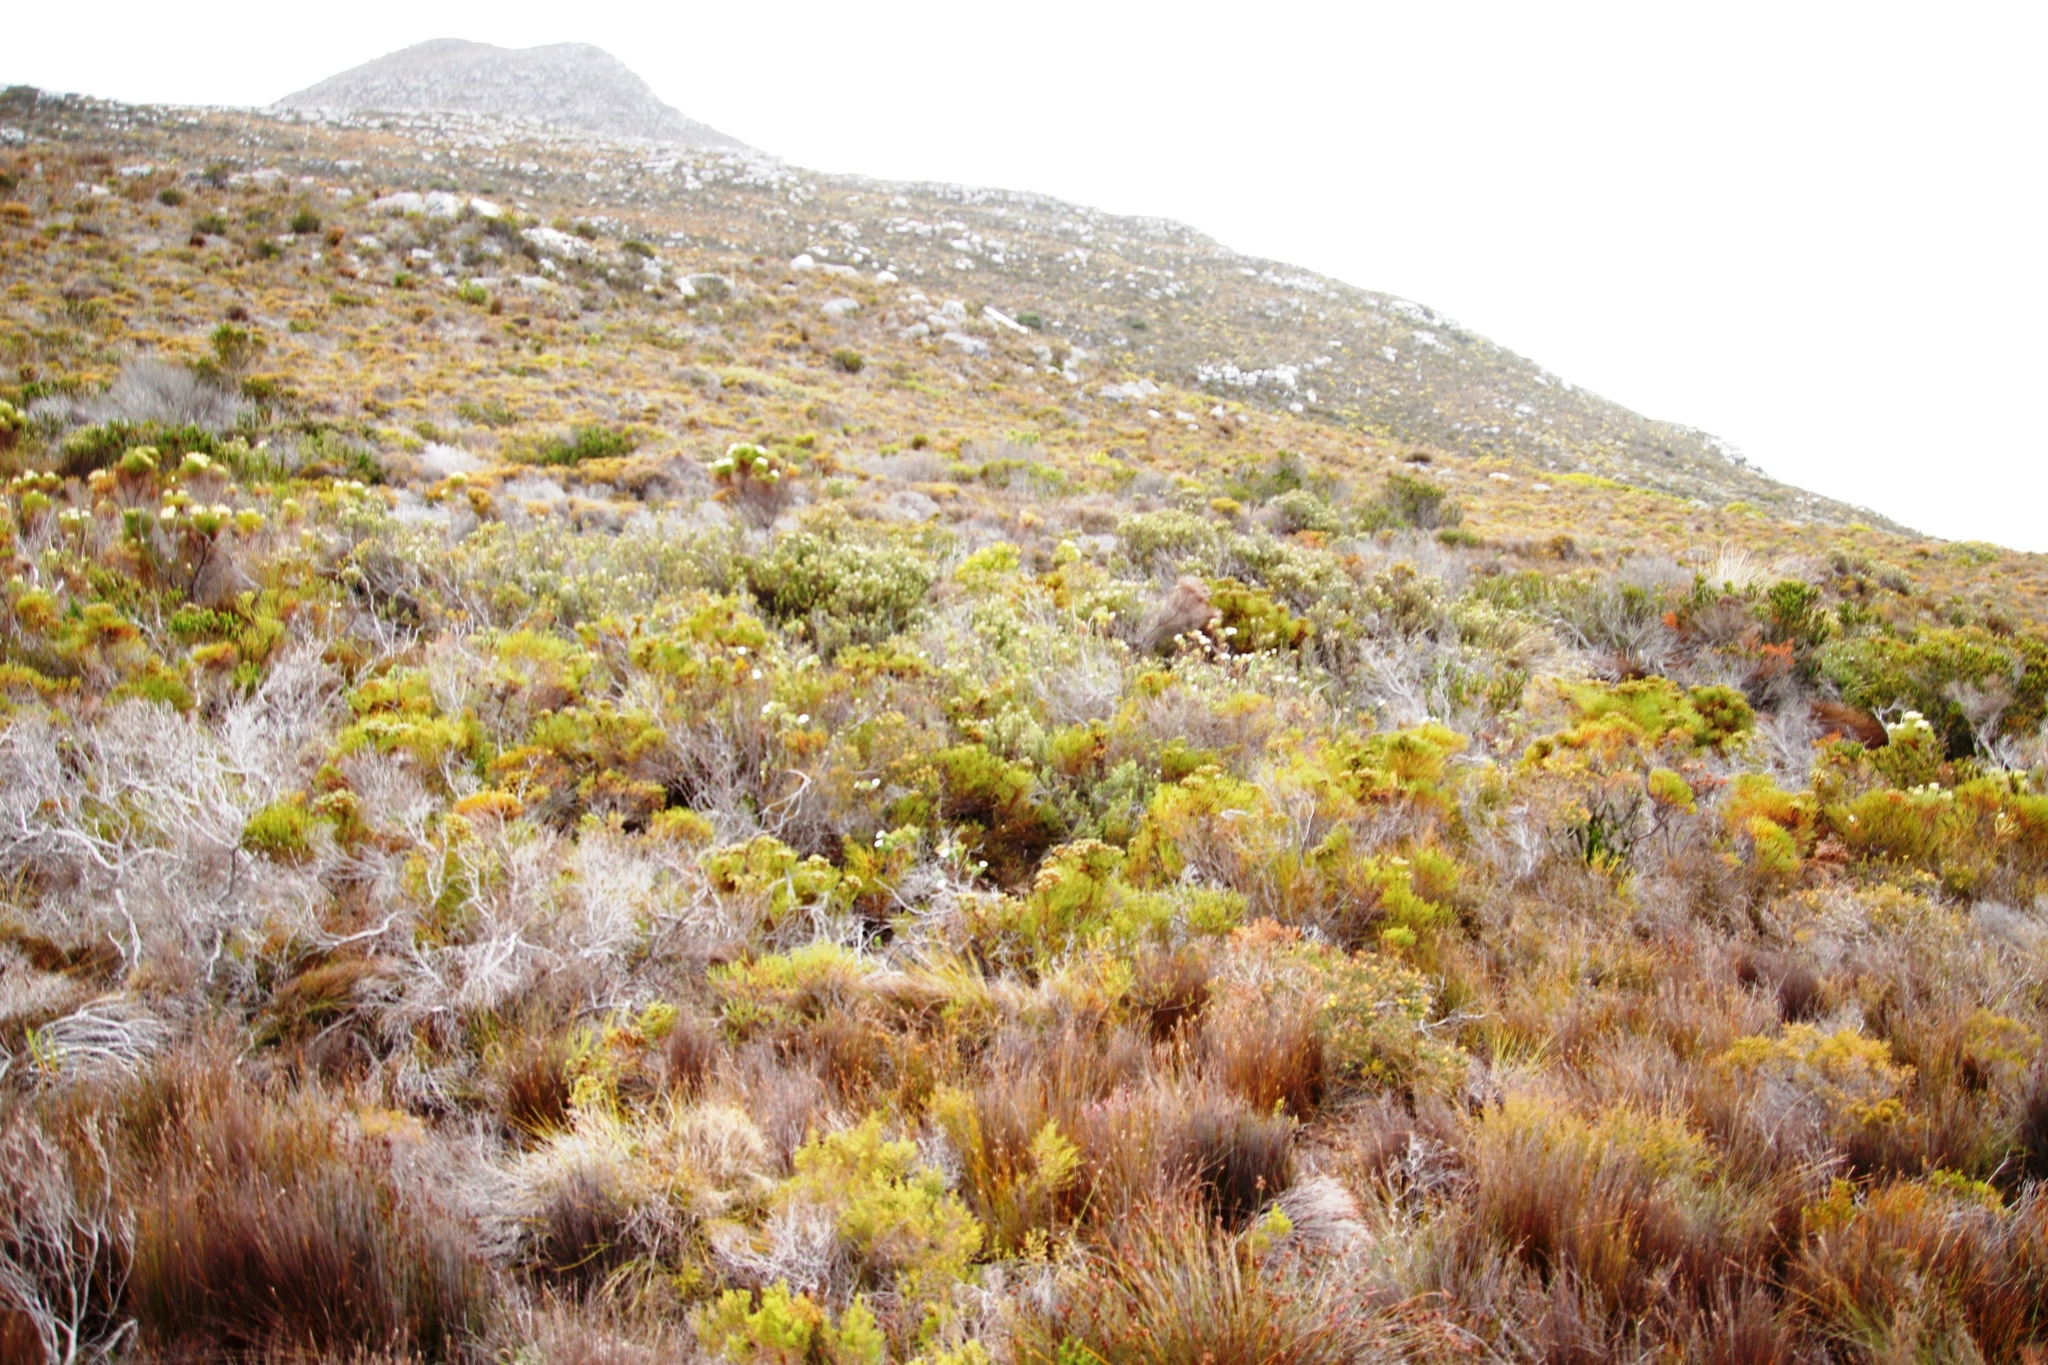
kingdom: Plantae
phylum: Tracheophyta
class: Magnoliopsida
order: Asterales
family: Asteraceae
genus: Osmitopsis
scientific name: Osmitopsis asteriscoides
